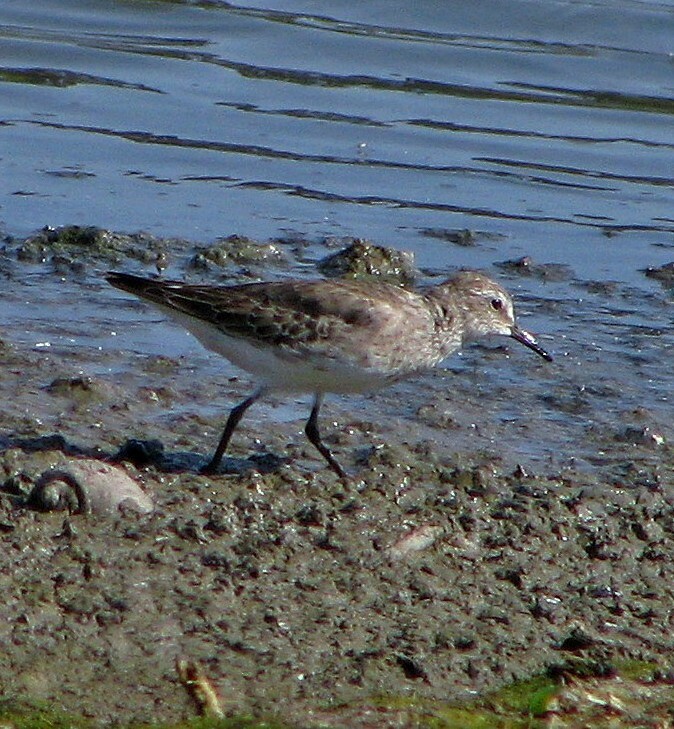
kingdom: Animalia
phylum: Chordata
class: Aves
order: Charadriiformes
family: Scolopacidae
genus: Calidris
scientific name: Calidris fuscicollis
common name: White-rumped sandpiper
